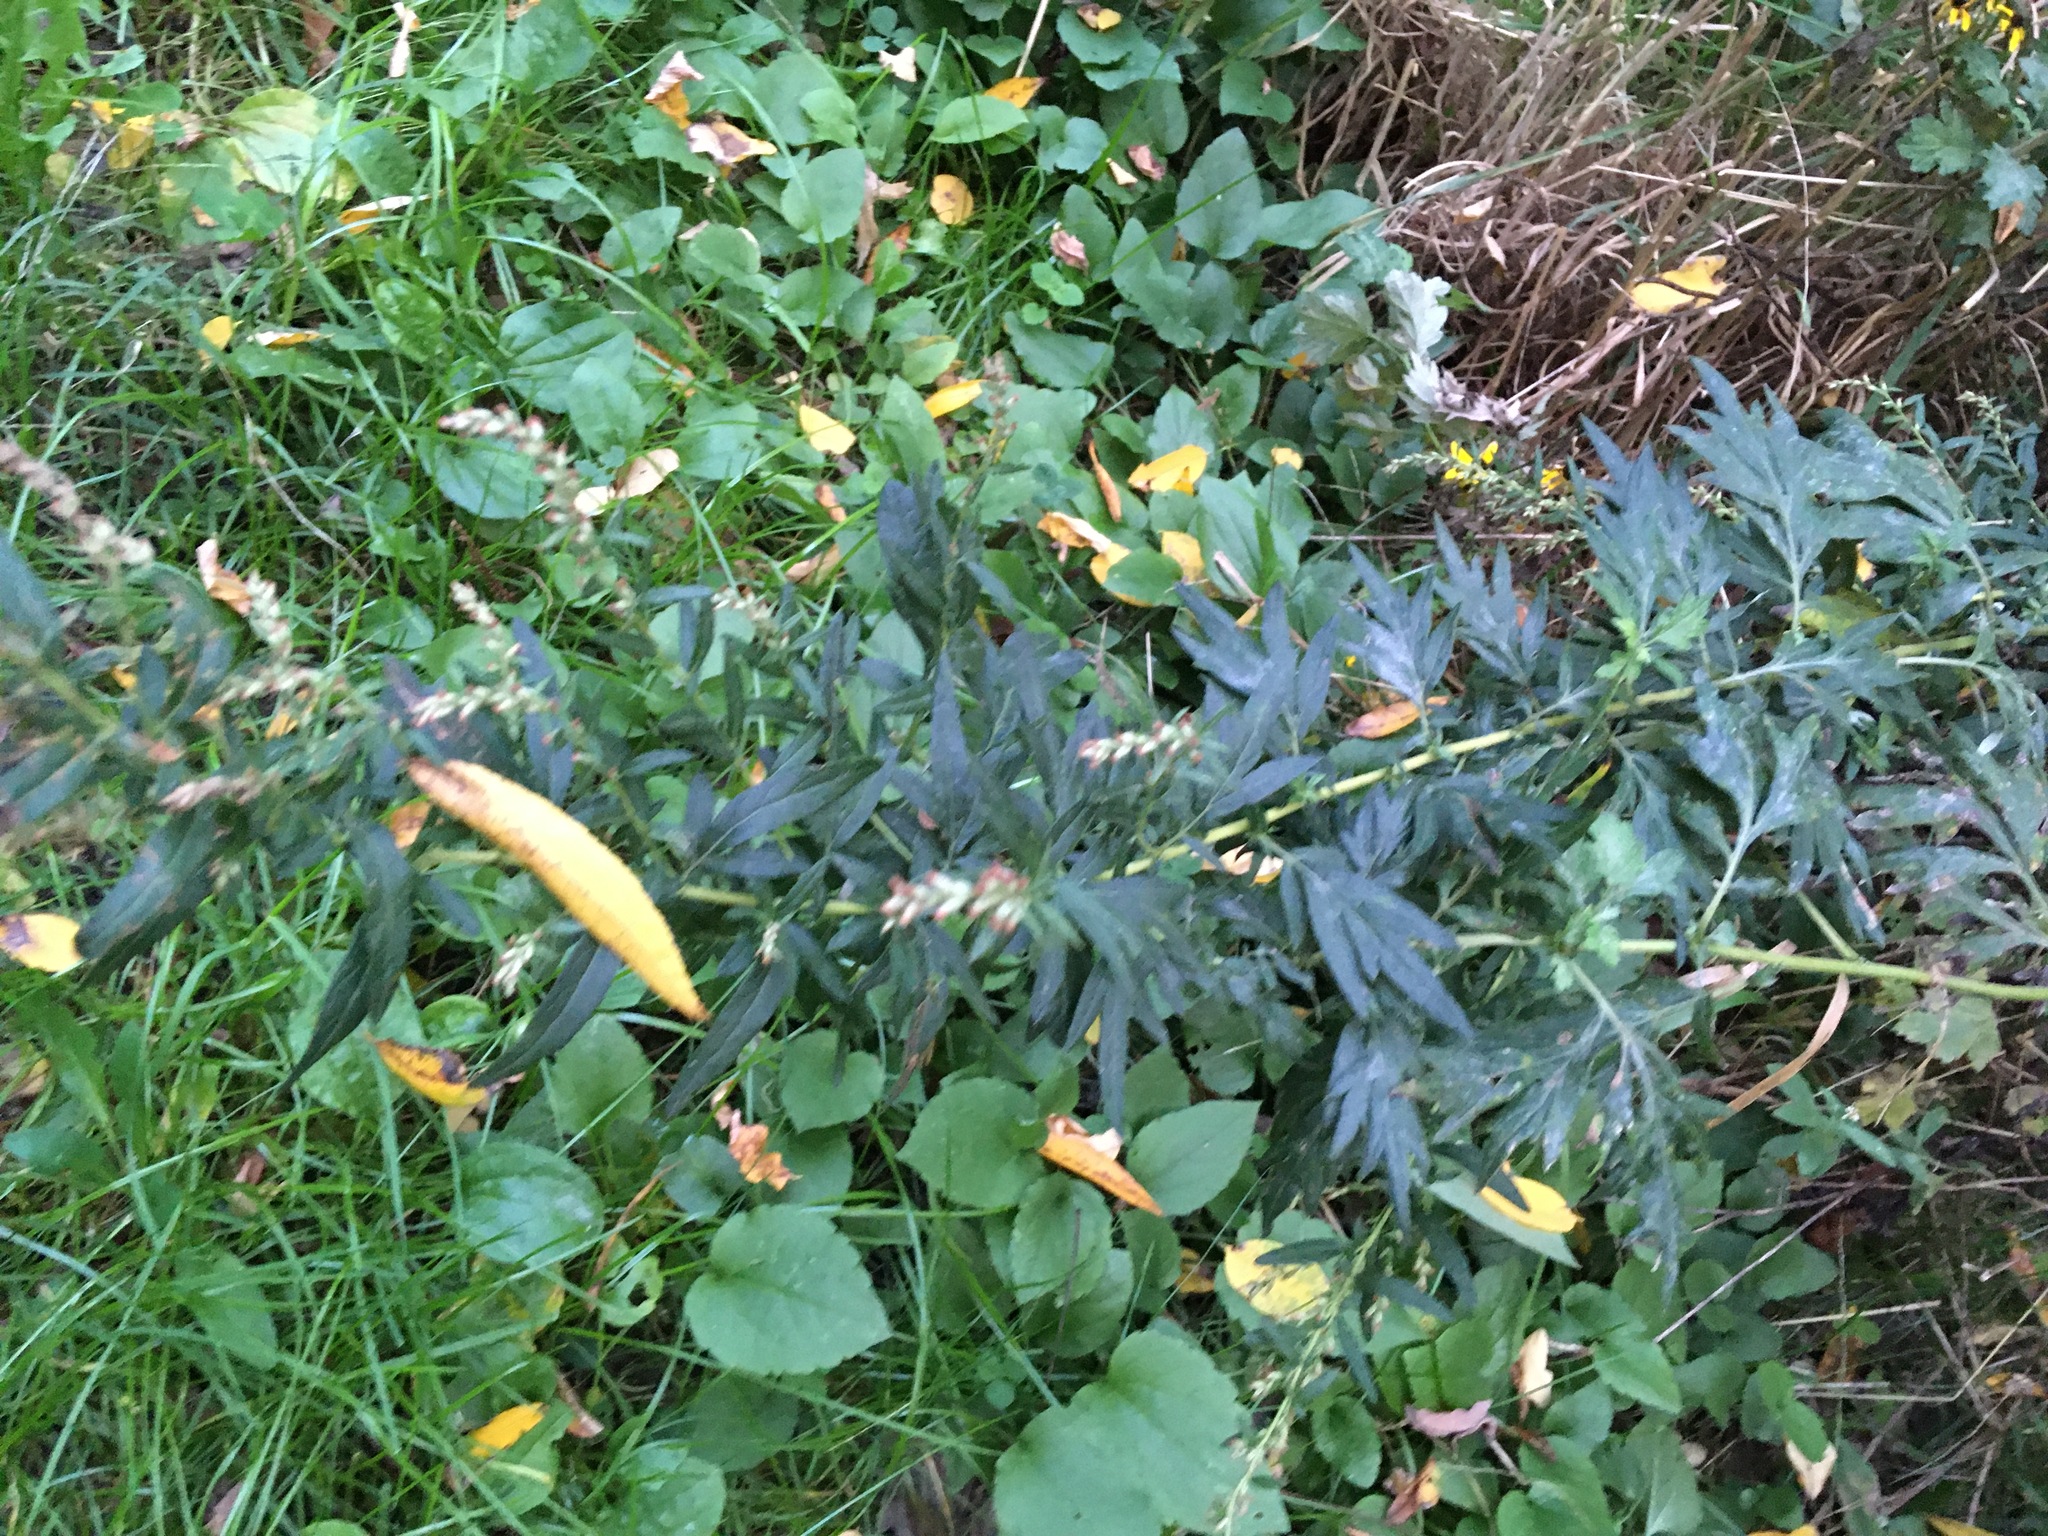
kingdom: Plantae
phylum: Tracheophyta
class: Magnoliopsida
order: Asterales
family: Asteraceae
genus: Artemisia
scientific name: Artemisia vulgaris
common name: Mugwort
